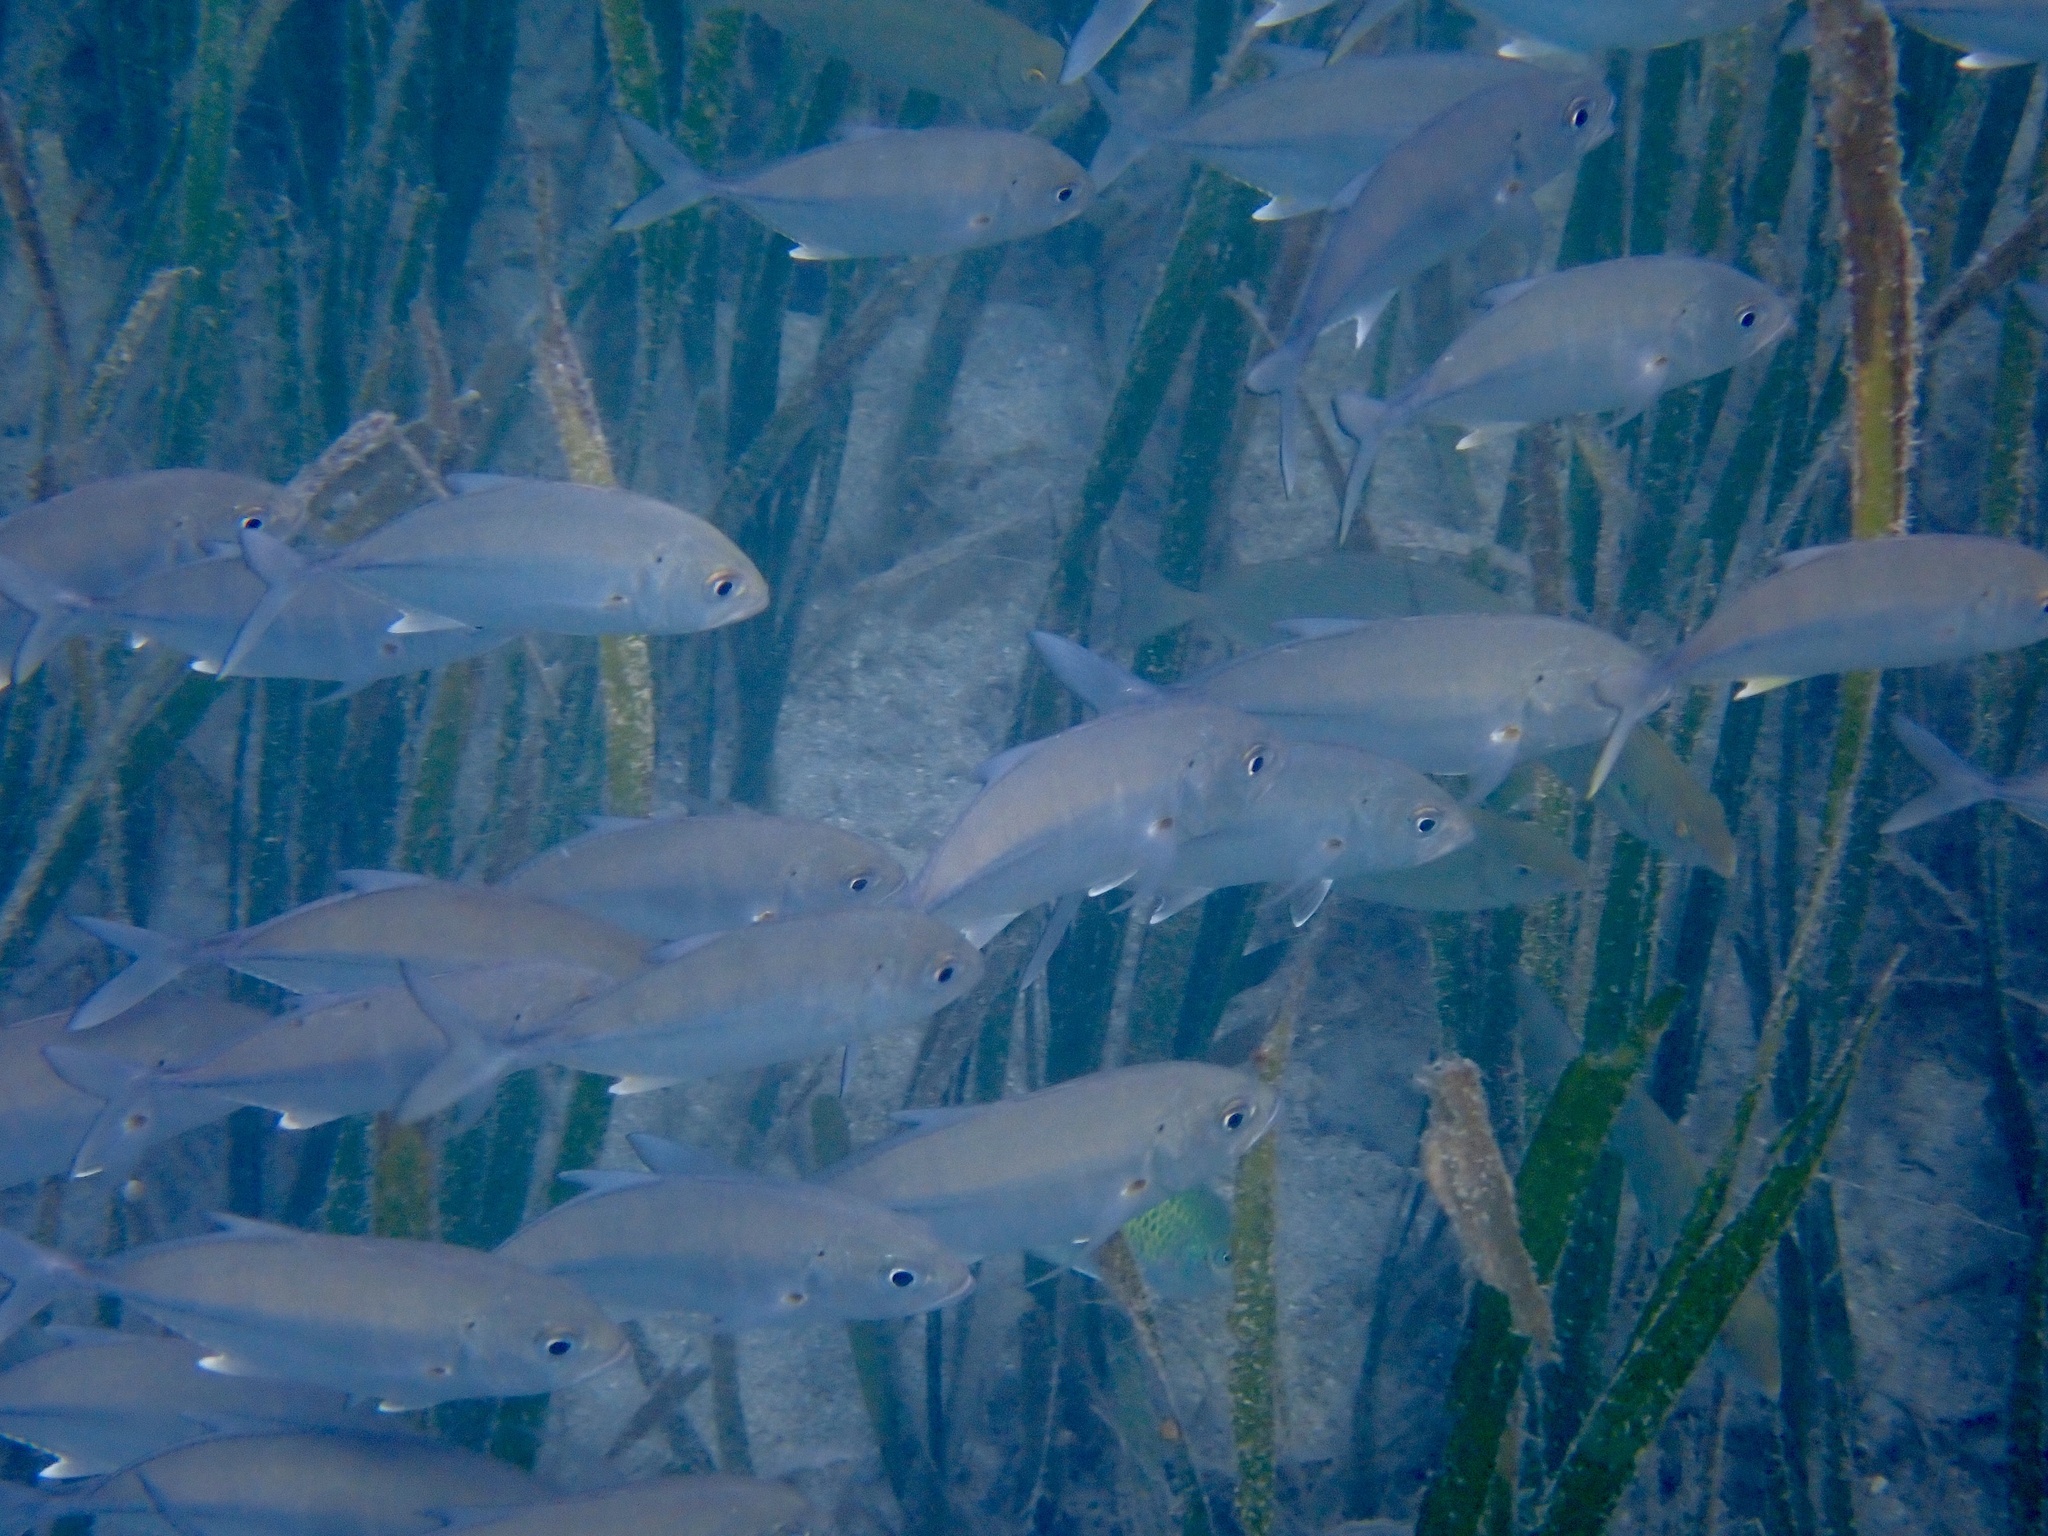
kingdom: Animalia
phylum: Chordata
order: Perciformes
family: Carangidae
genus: Caranx
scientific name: Caranx sexfasciatus
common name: Bigeye trevally
